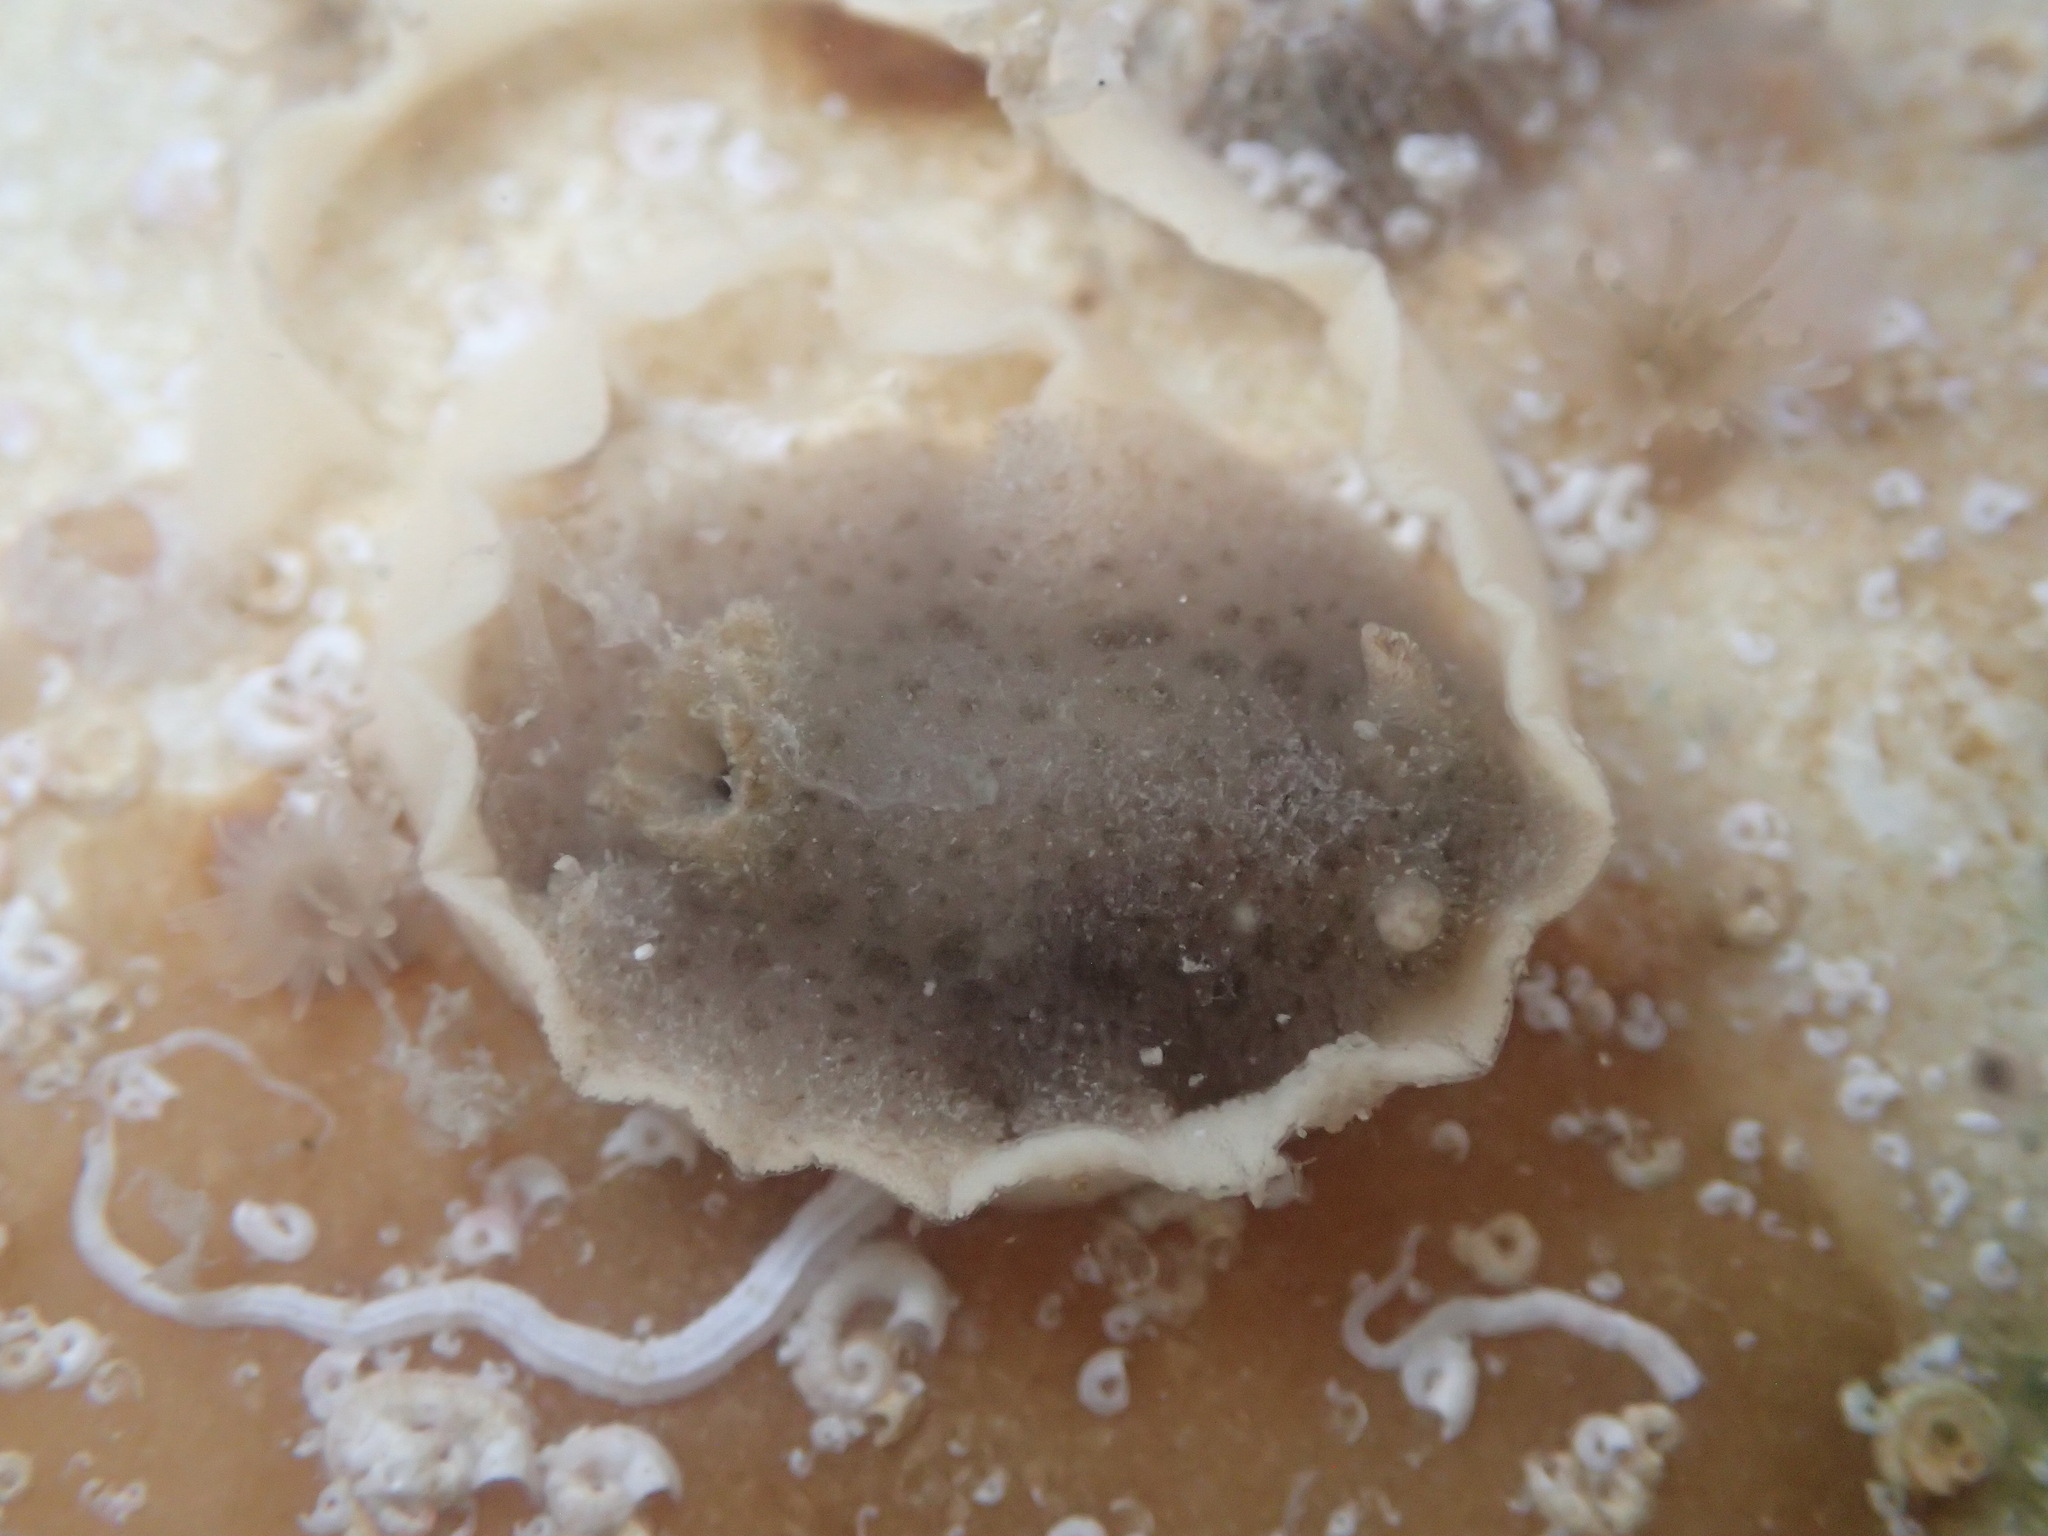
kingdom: Animalia
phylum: Mollusca
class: Gastropoda
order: Nudibranchia
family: Discodorididae
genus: Jorunna
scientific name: Jorunna osae
